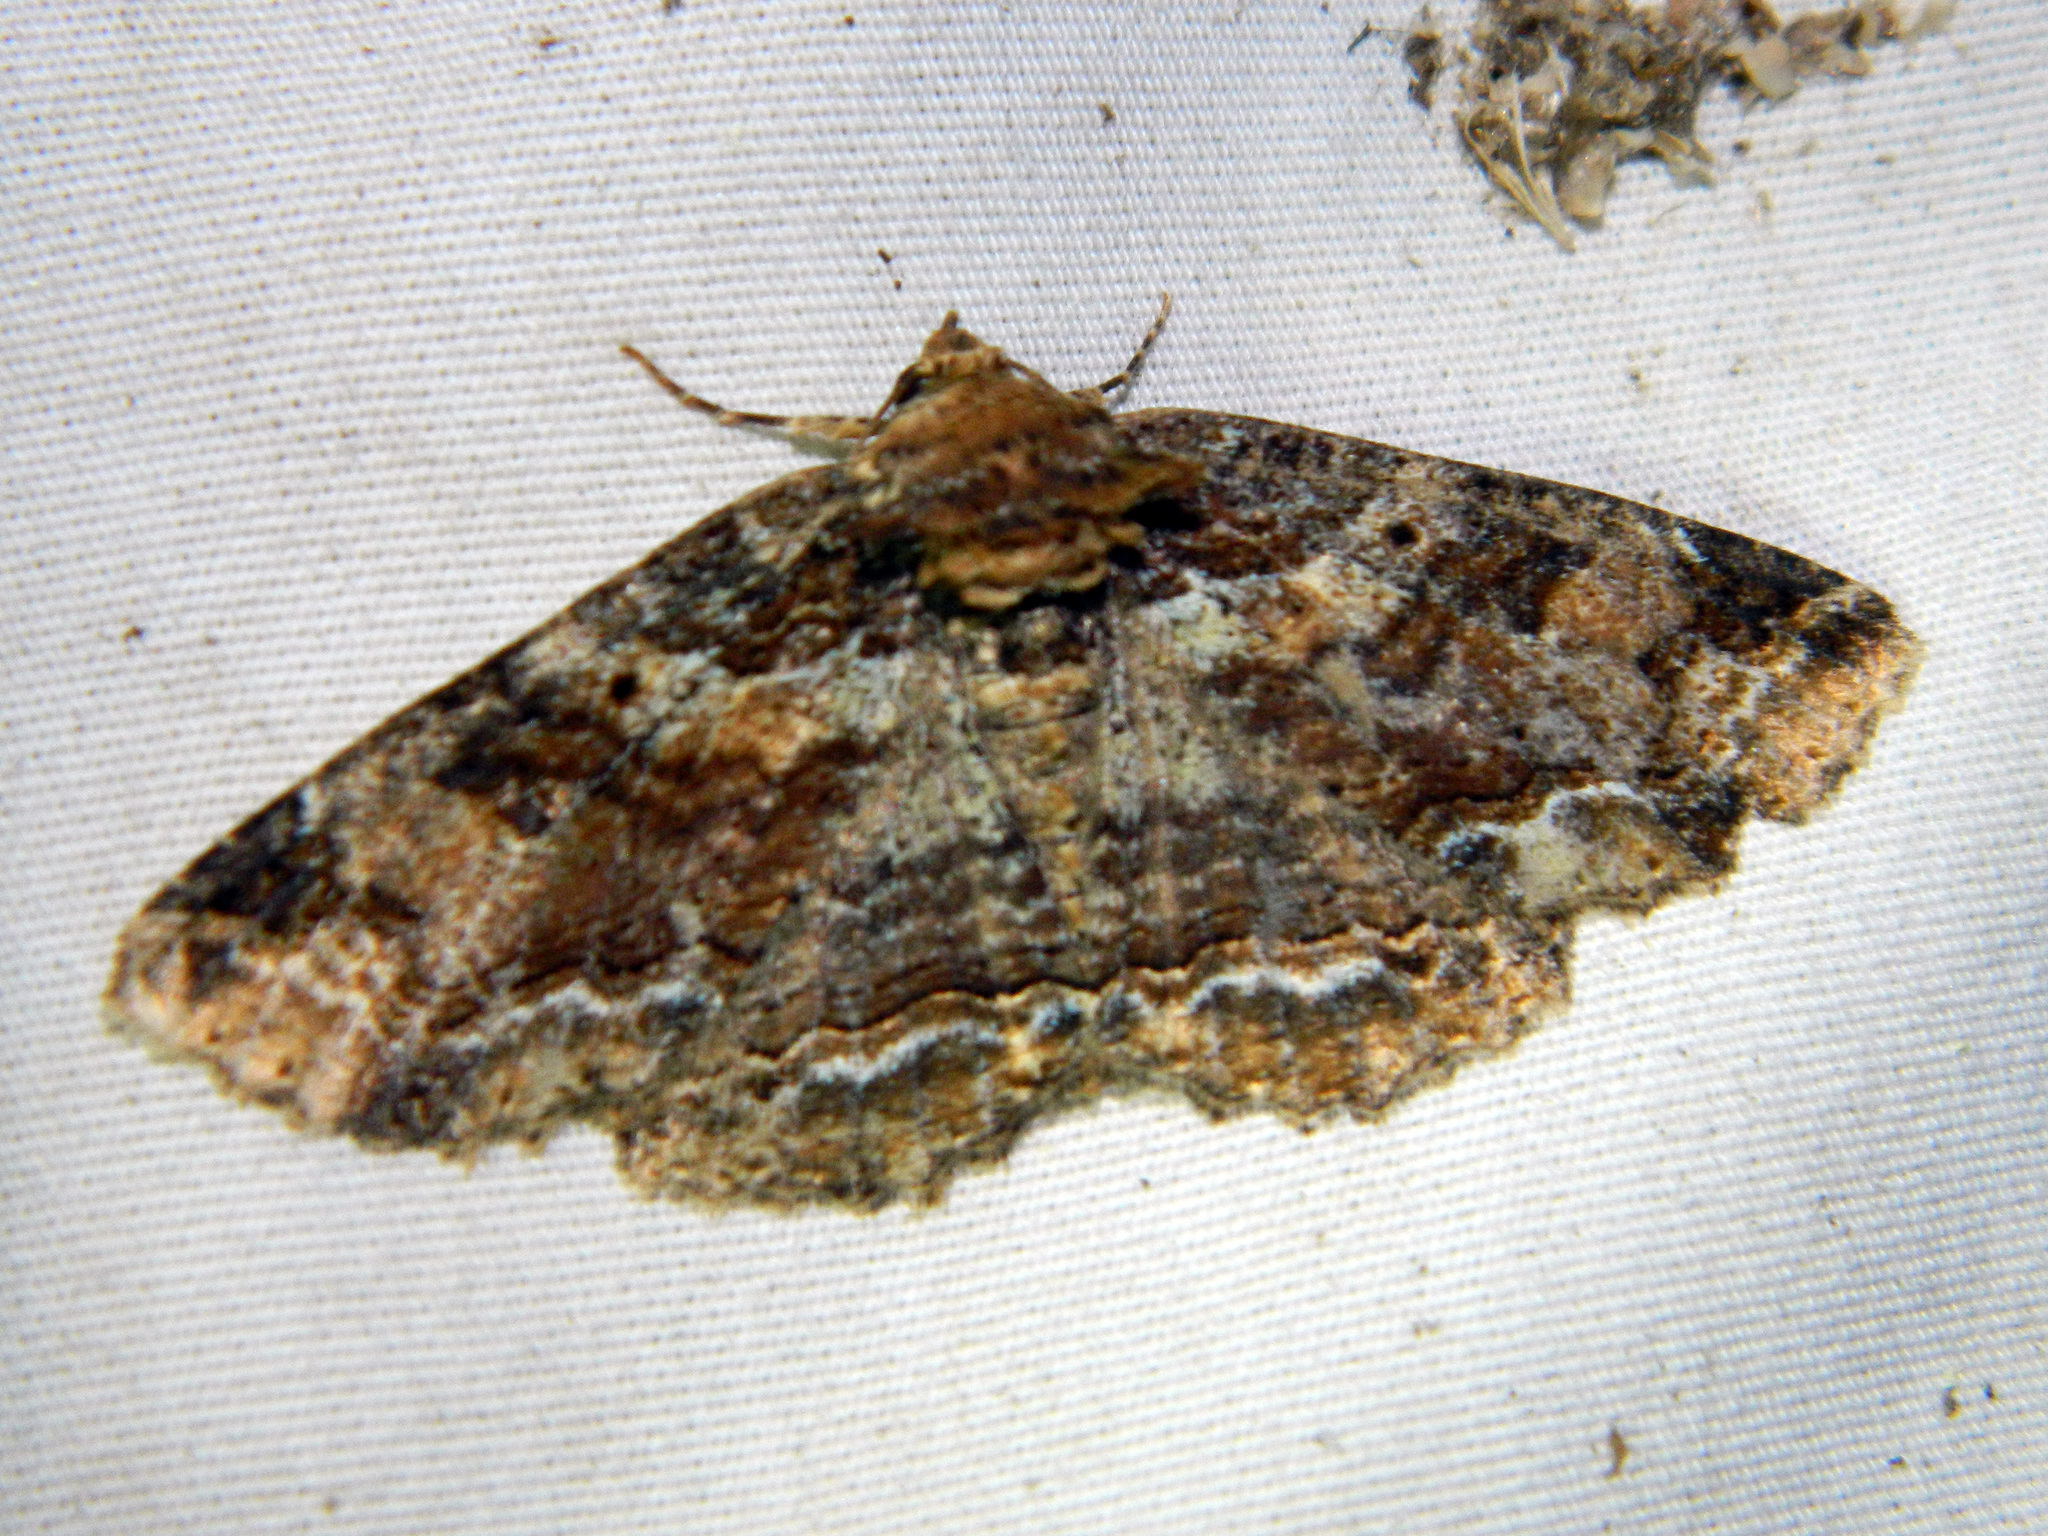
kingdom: Animalia
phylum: Arthropoda
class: Insecta
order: Lepidoptera
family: Erebidae
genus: Zale
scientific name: Zale minerea
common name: Colorful zale moth
